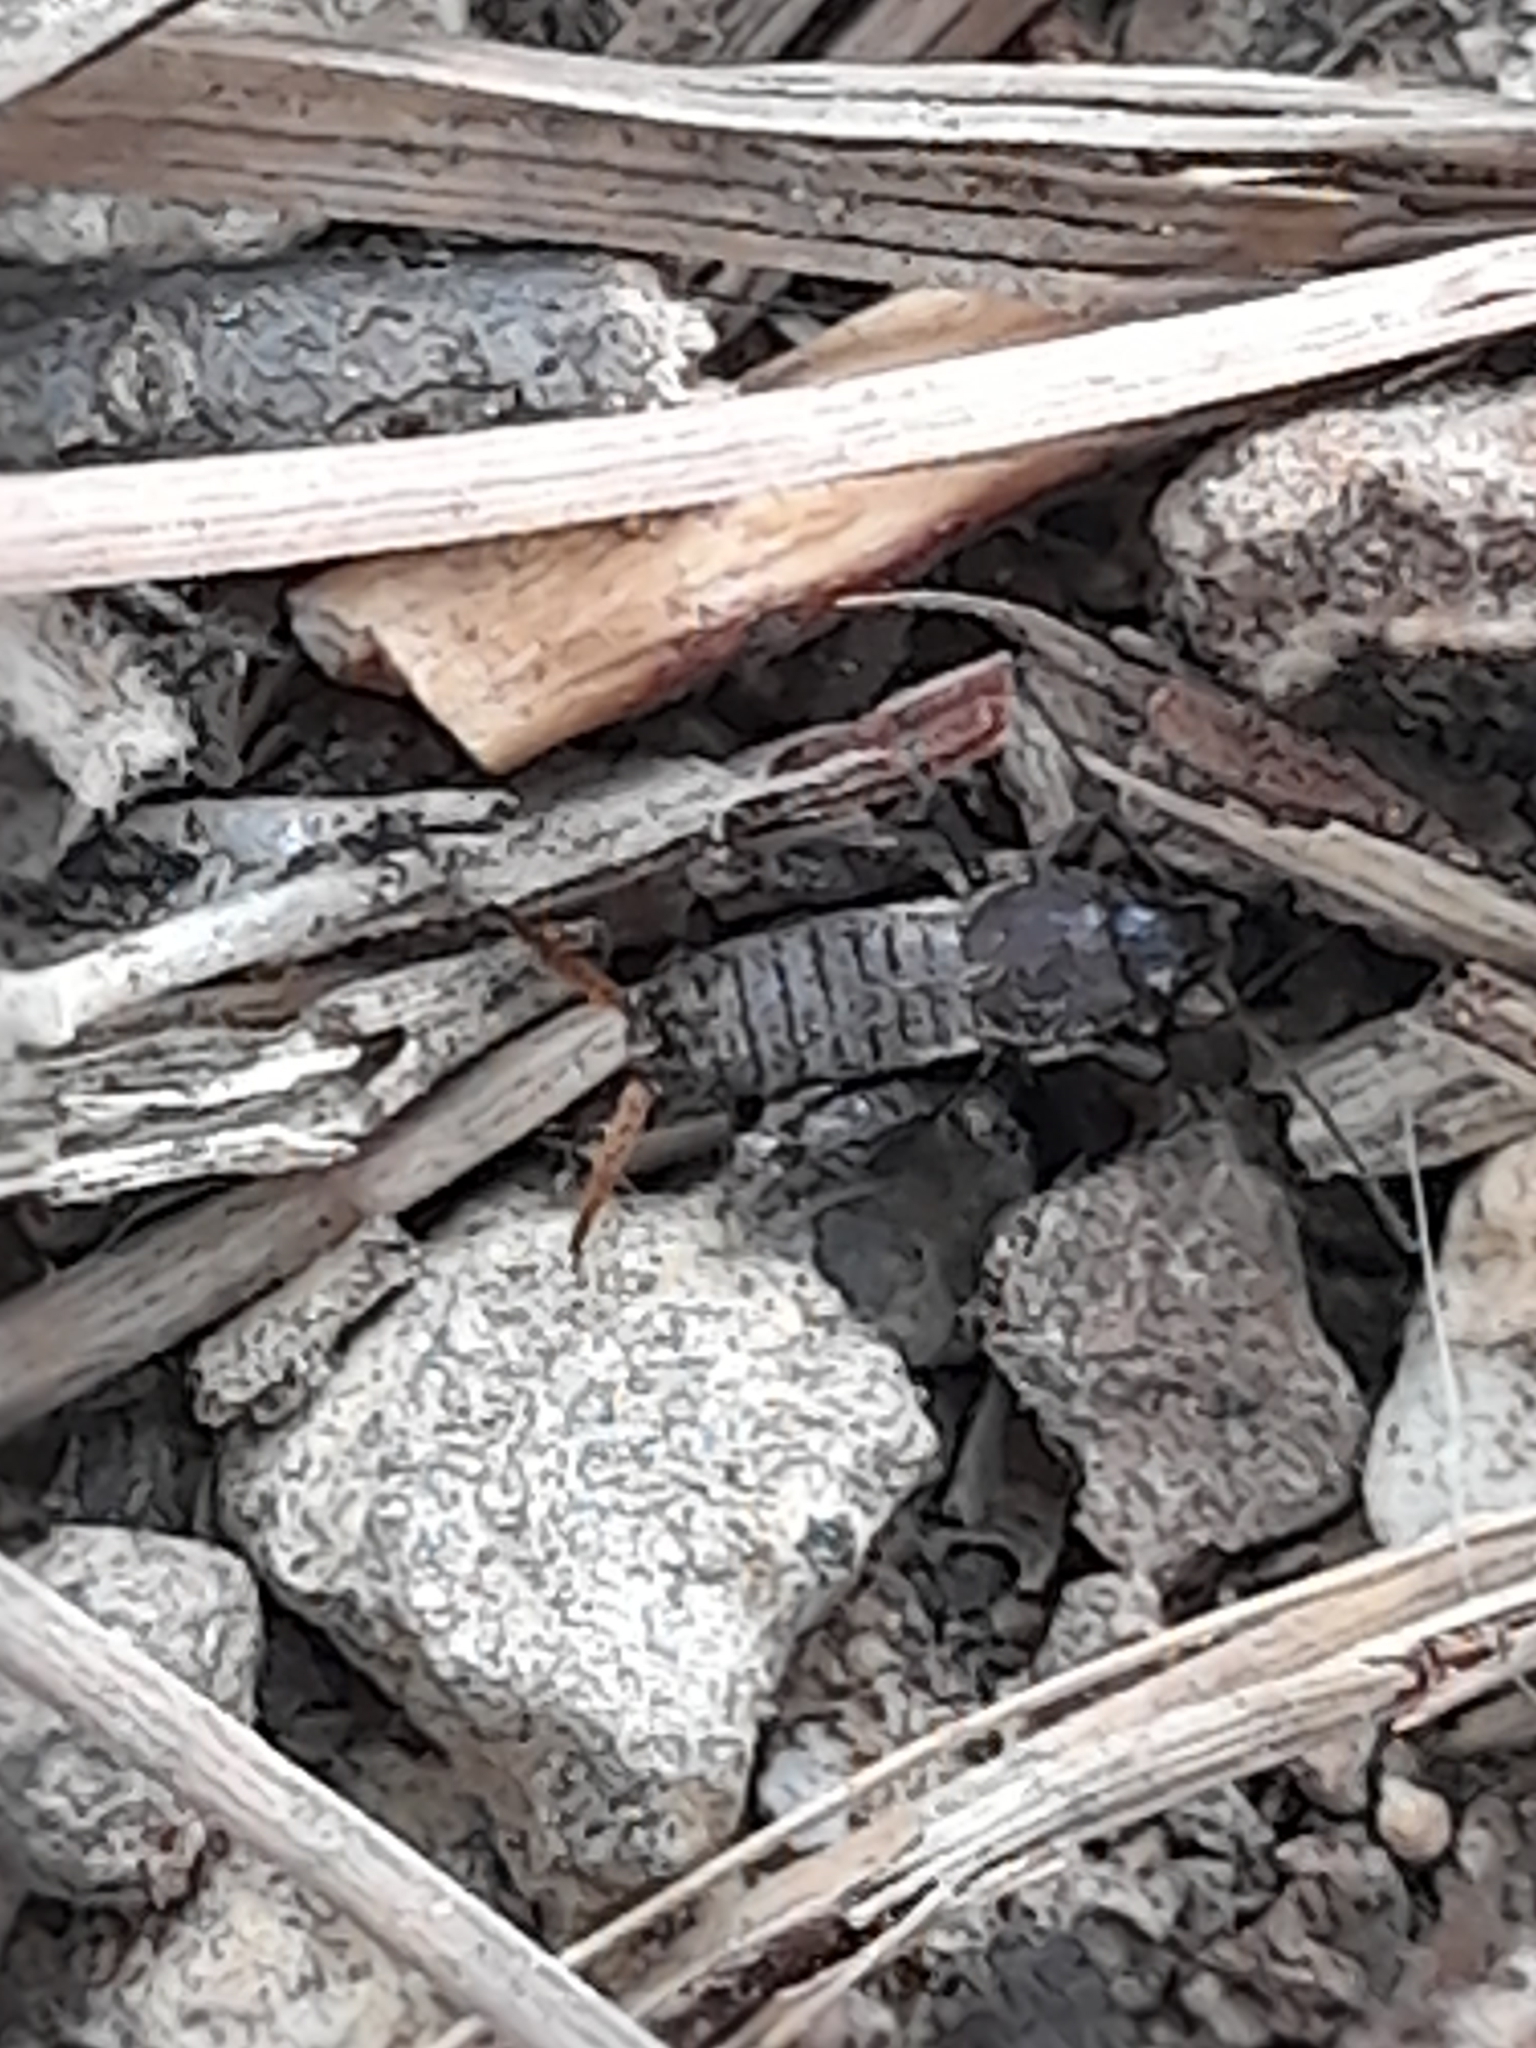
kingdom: Animalia
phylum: Arthropoda
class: Insecta
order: Orthoptera
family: Mogoplistidae
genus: Mogoplistes
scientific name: Mogoplistes brunneus
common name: Brown scale-cricket
